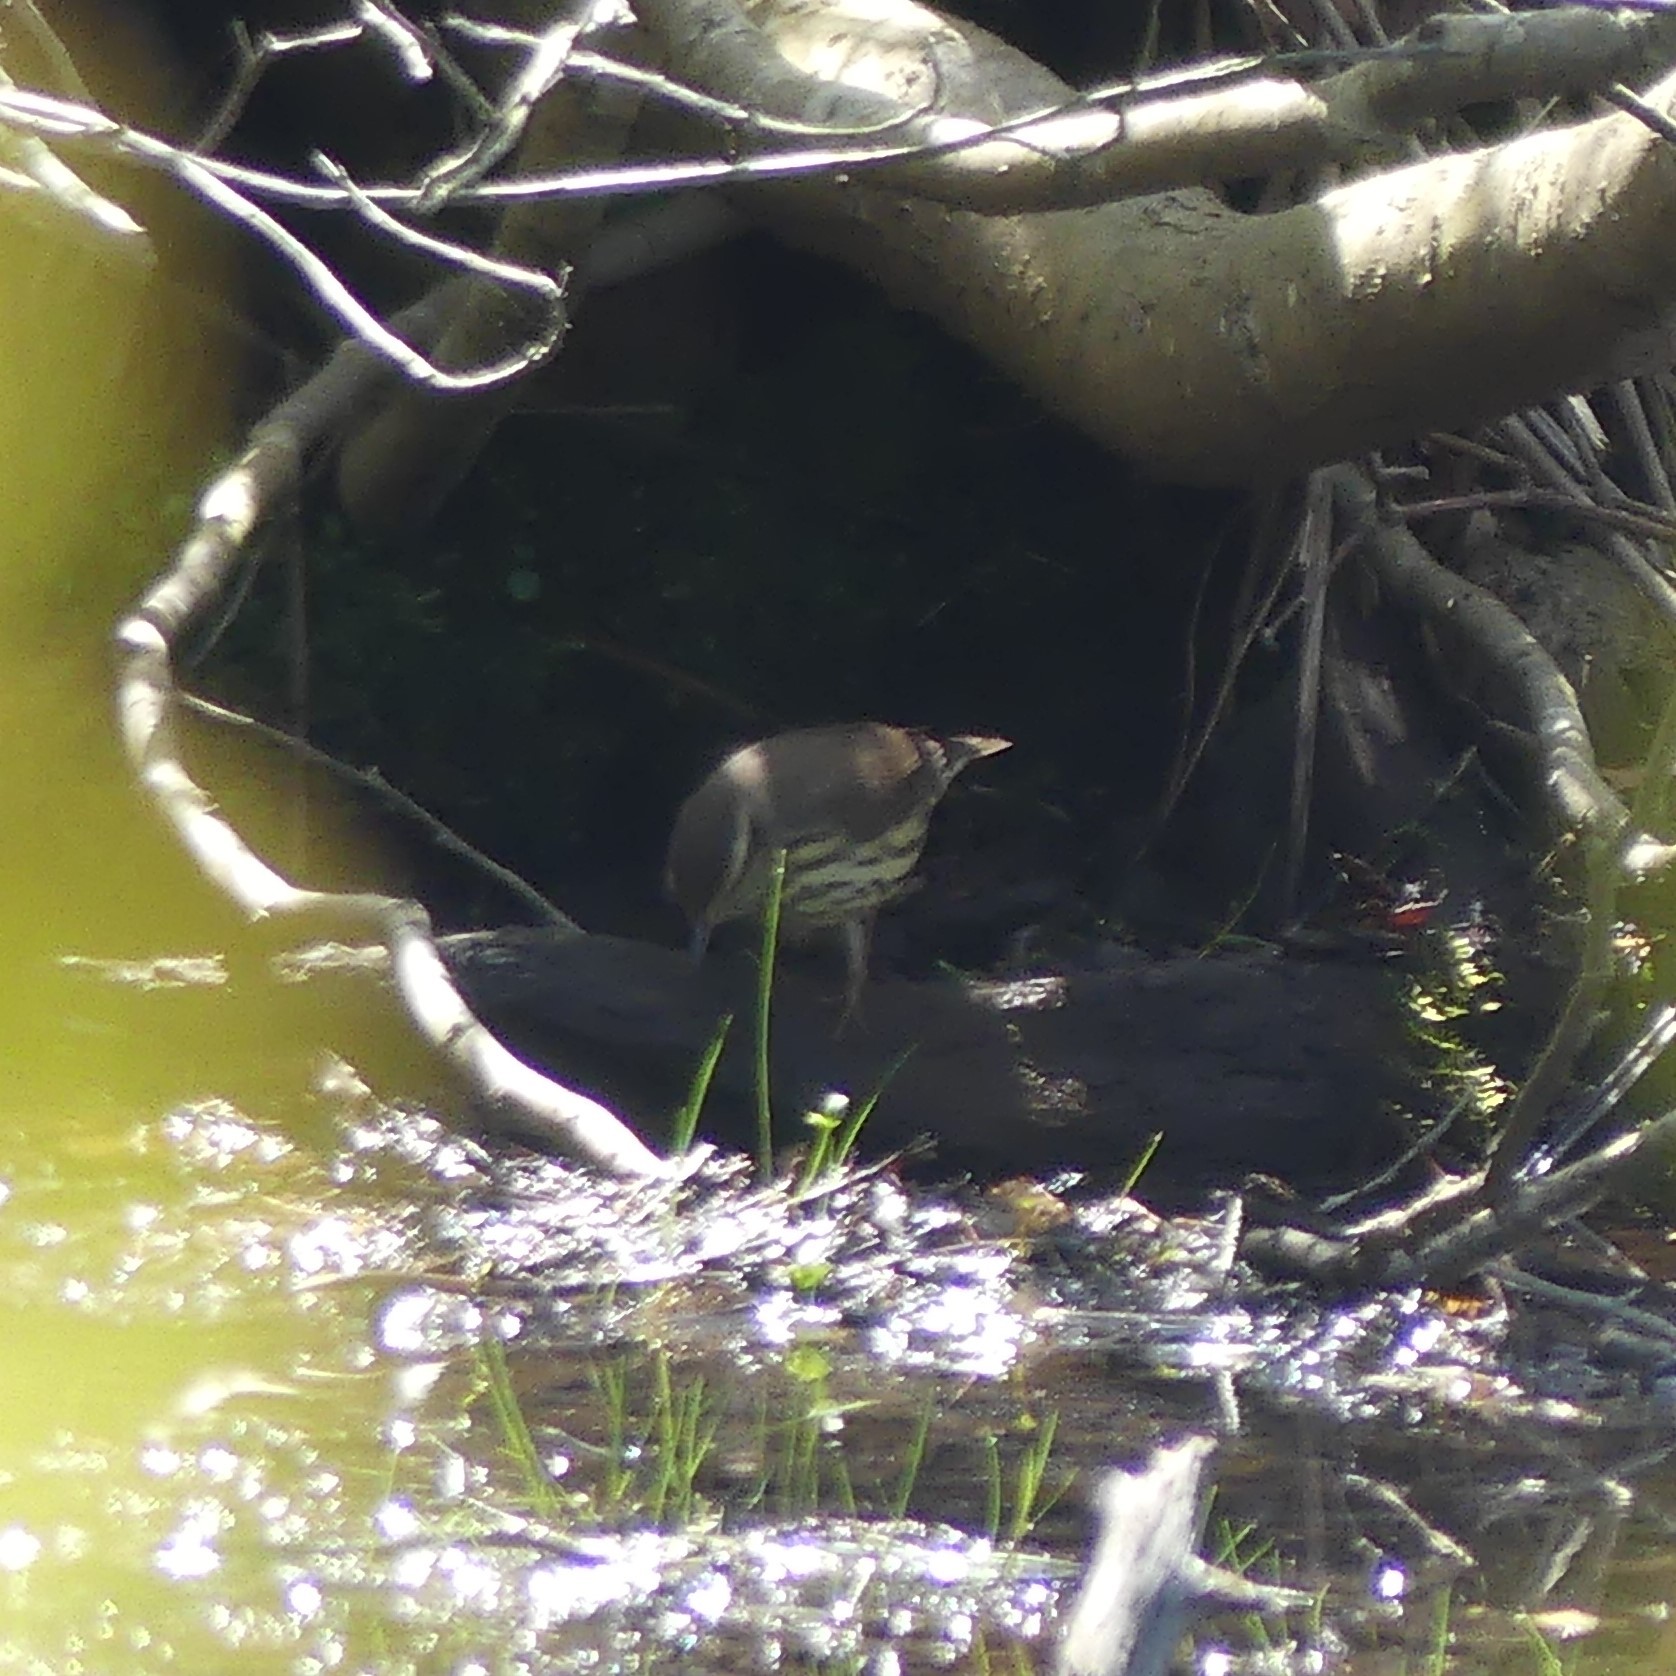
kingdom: Animalia
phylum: Chordata
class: Aves
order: Passeriformes
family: Parulidae
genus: Parkesia
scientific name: Parkesia noveboracensis
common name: Northern waterthrush
